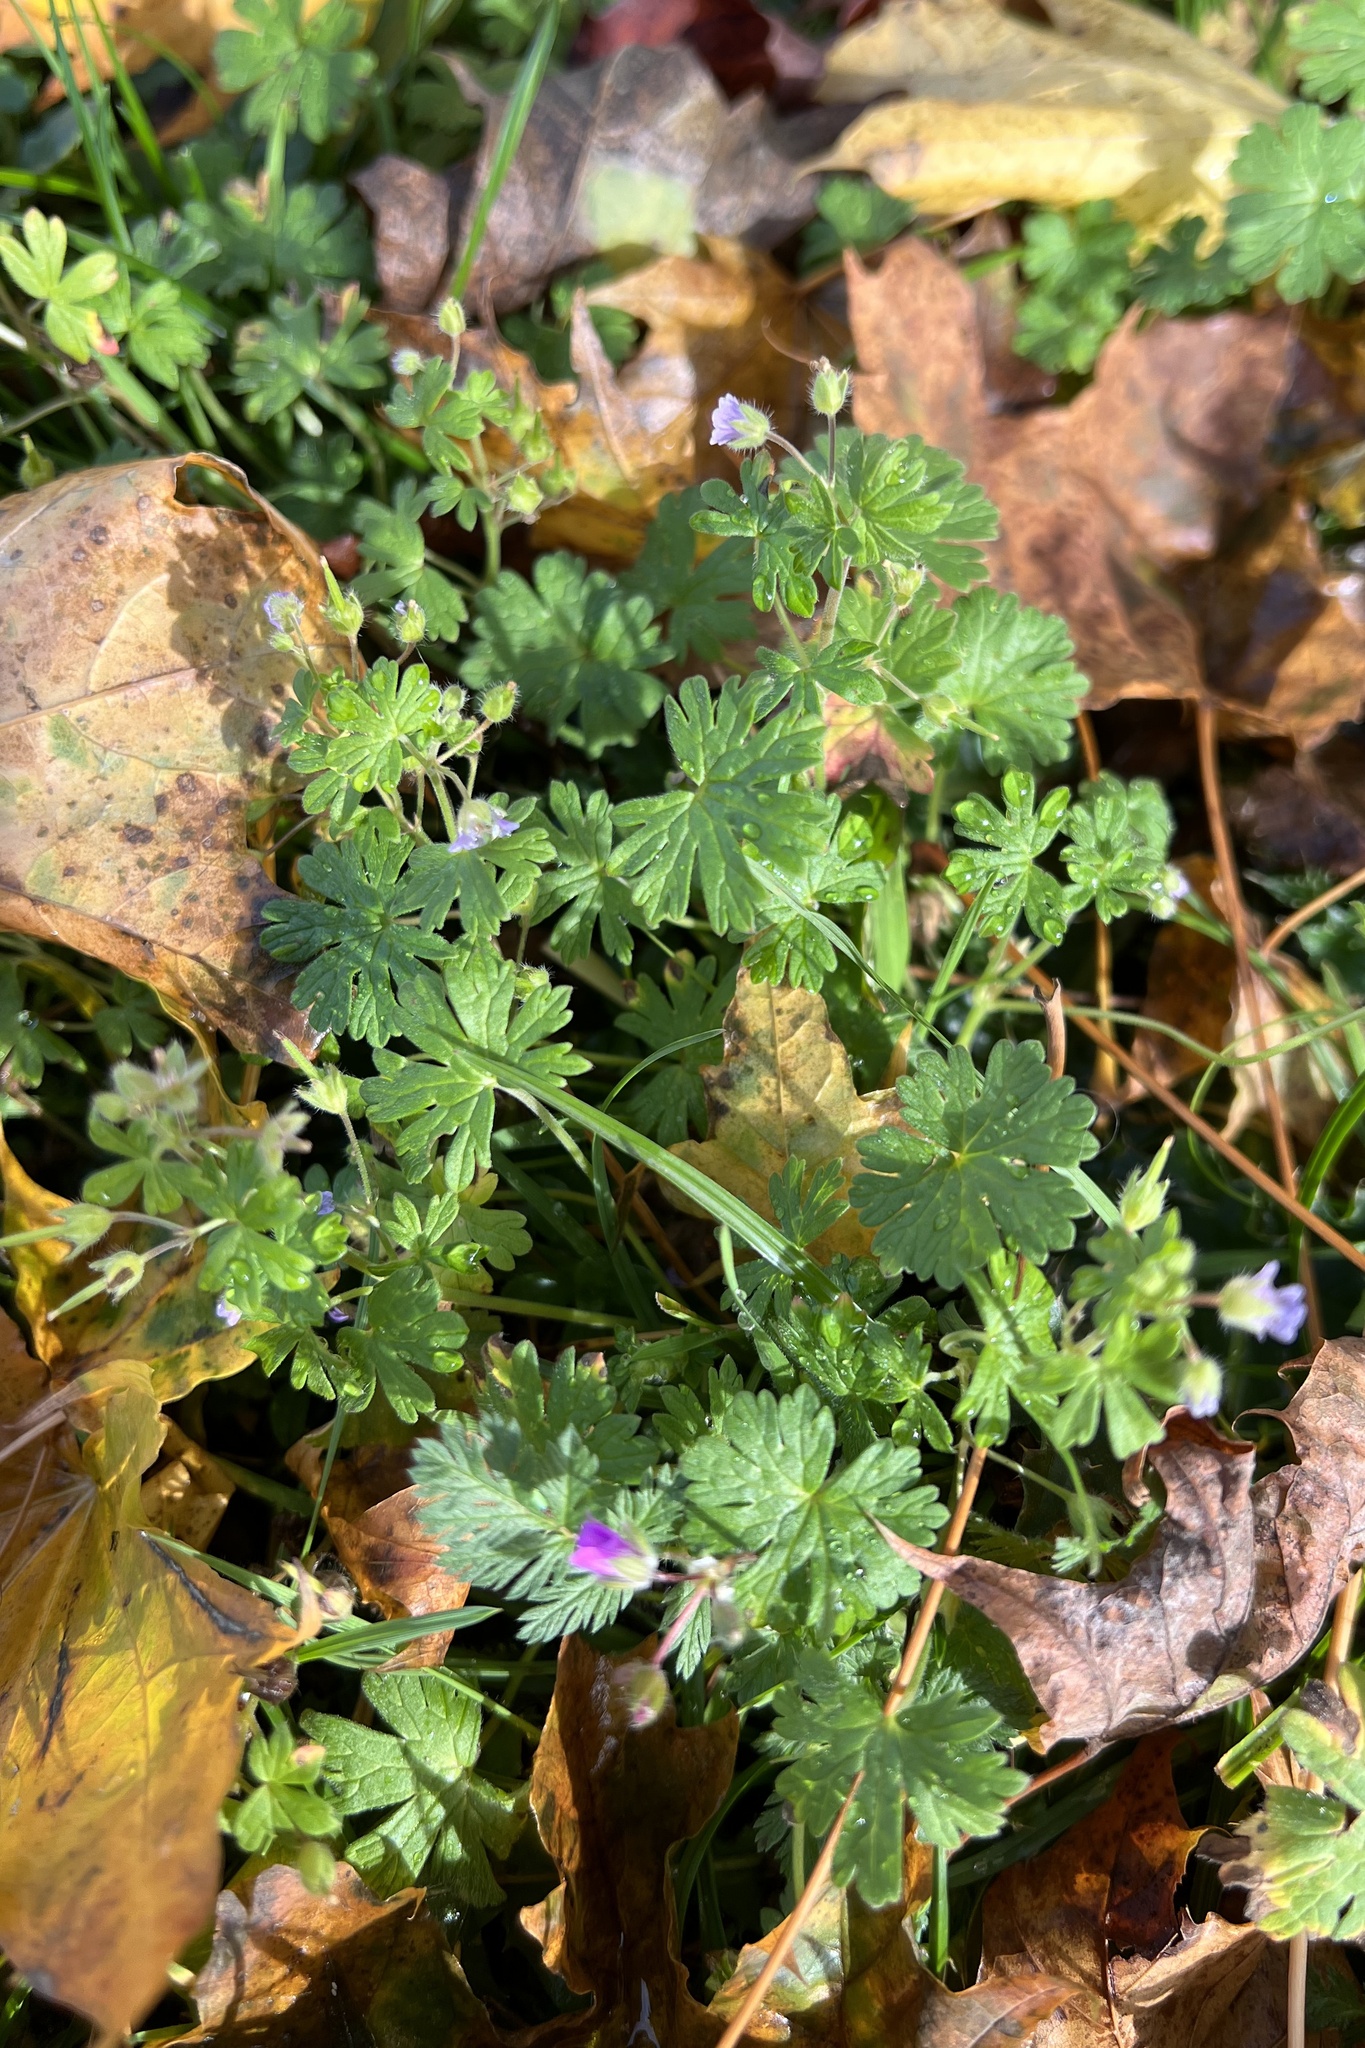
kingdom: Plantae
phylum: Tracheophyta
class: Magnoliopsida
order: Geraniales
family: Geraniaceae
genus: Geranium
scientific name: Geranium pusillum
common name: Small geranium
